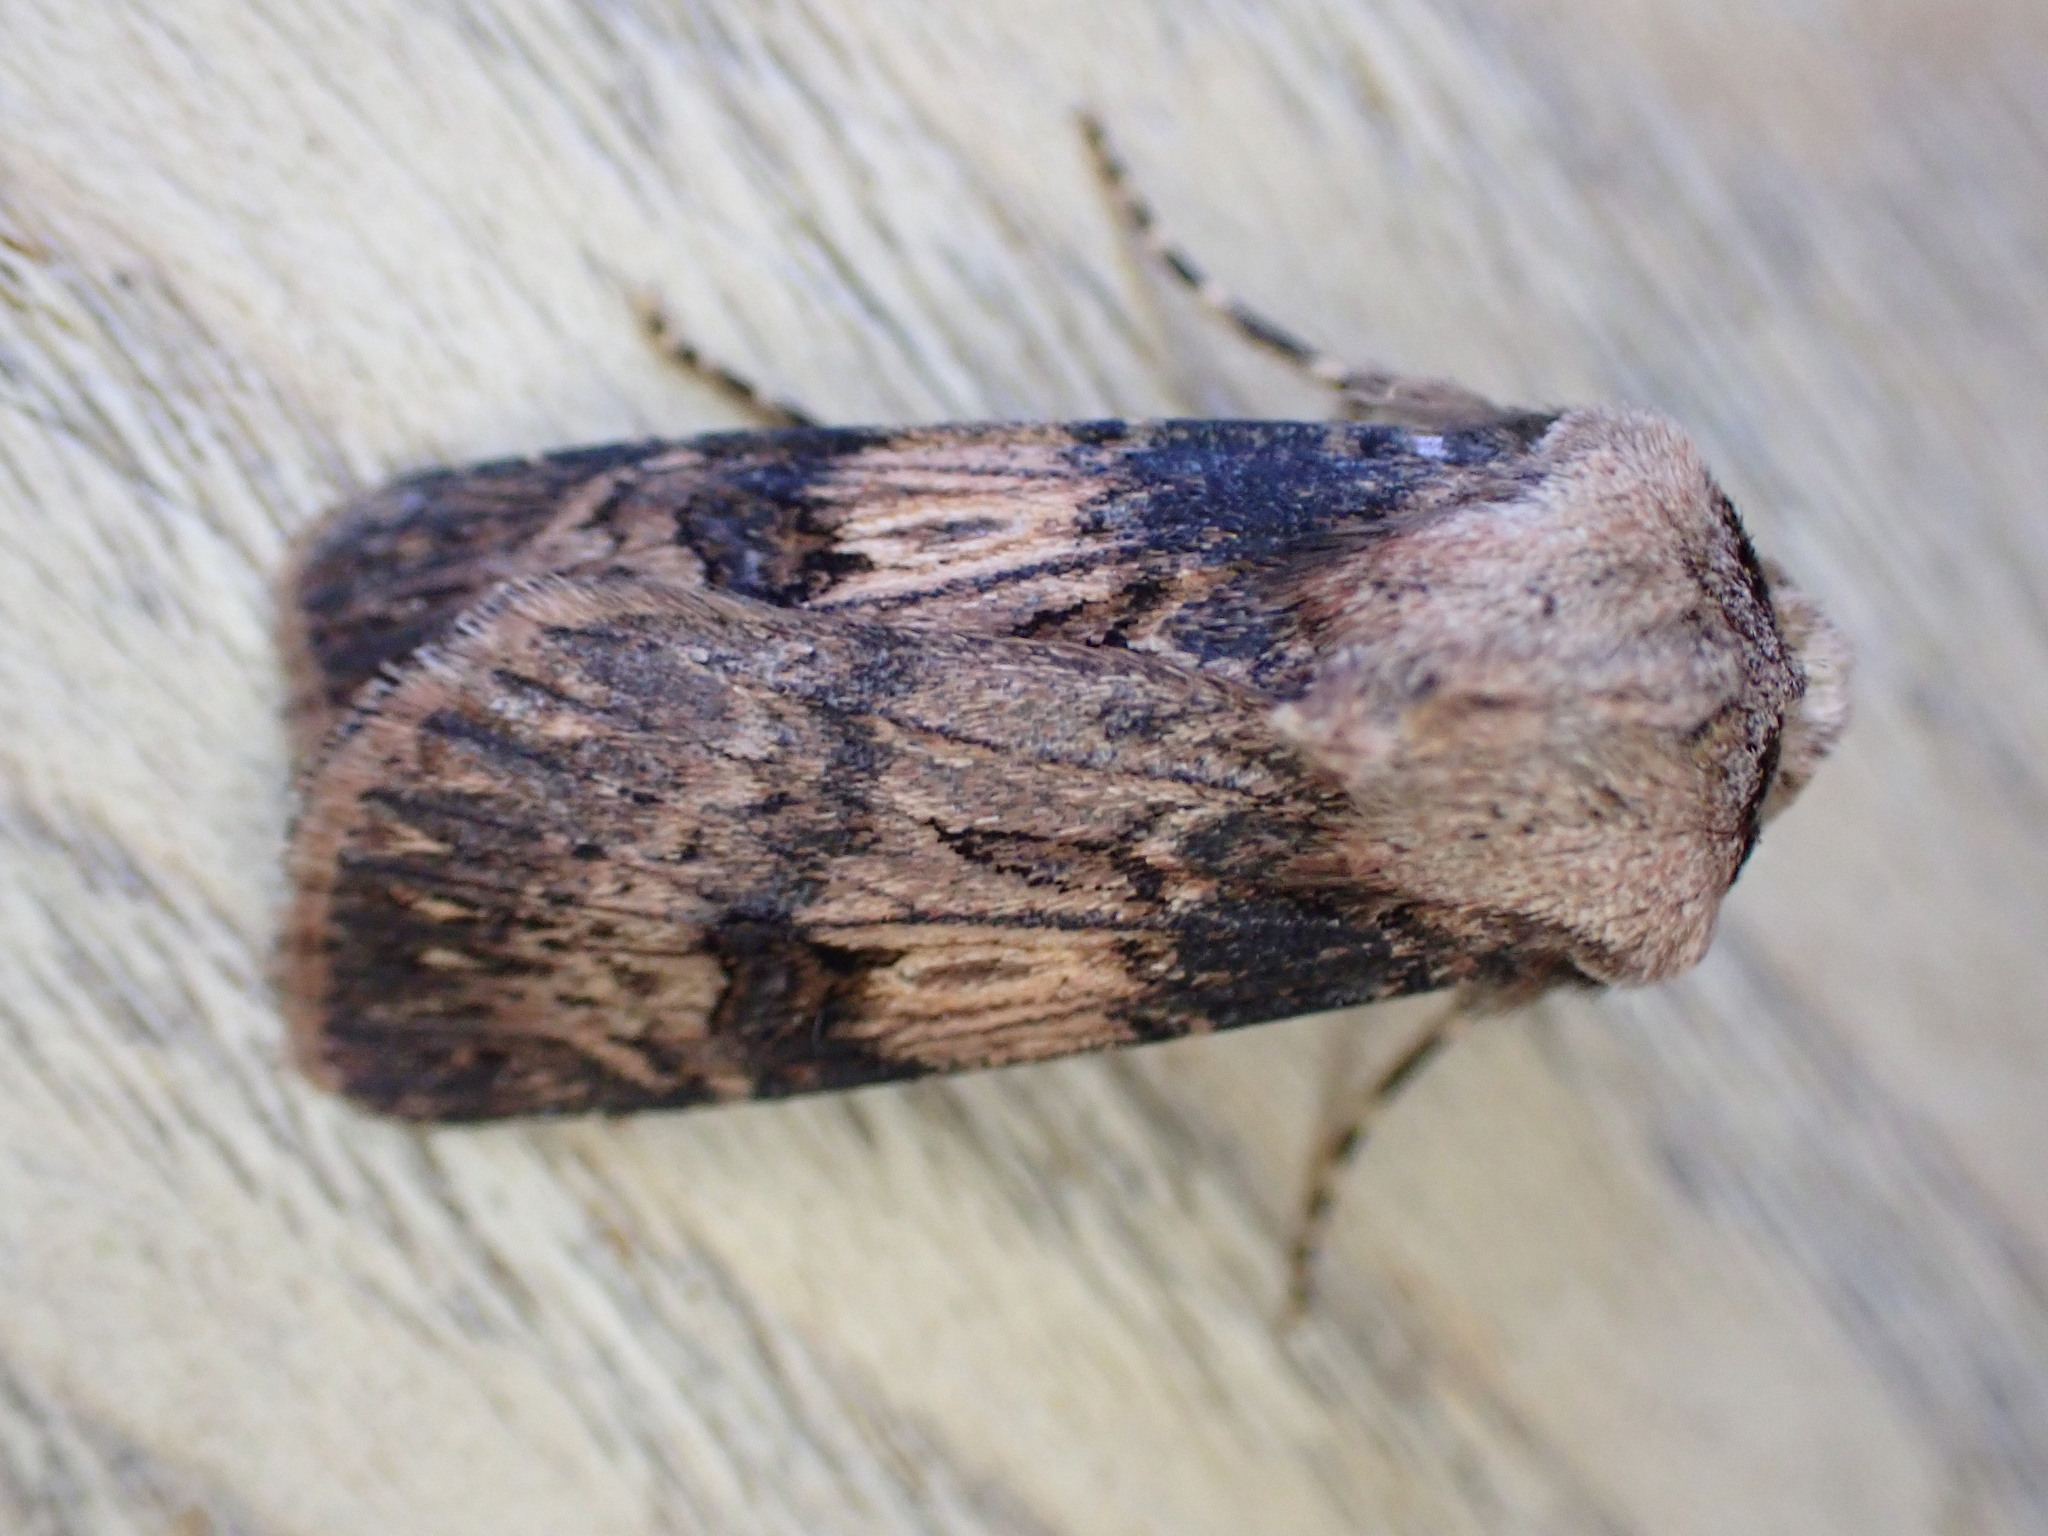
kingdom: Animalia
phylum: Arthropoda
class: Insecta
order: Lepidoptera
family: Noctuidae
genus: Agrotis
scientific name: Agrotis puta
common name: Shuttle-shaped dart
